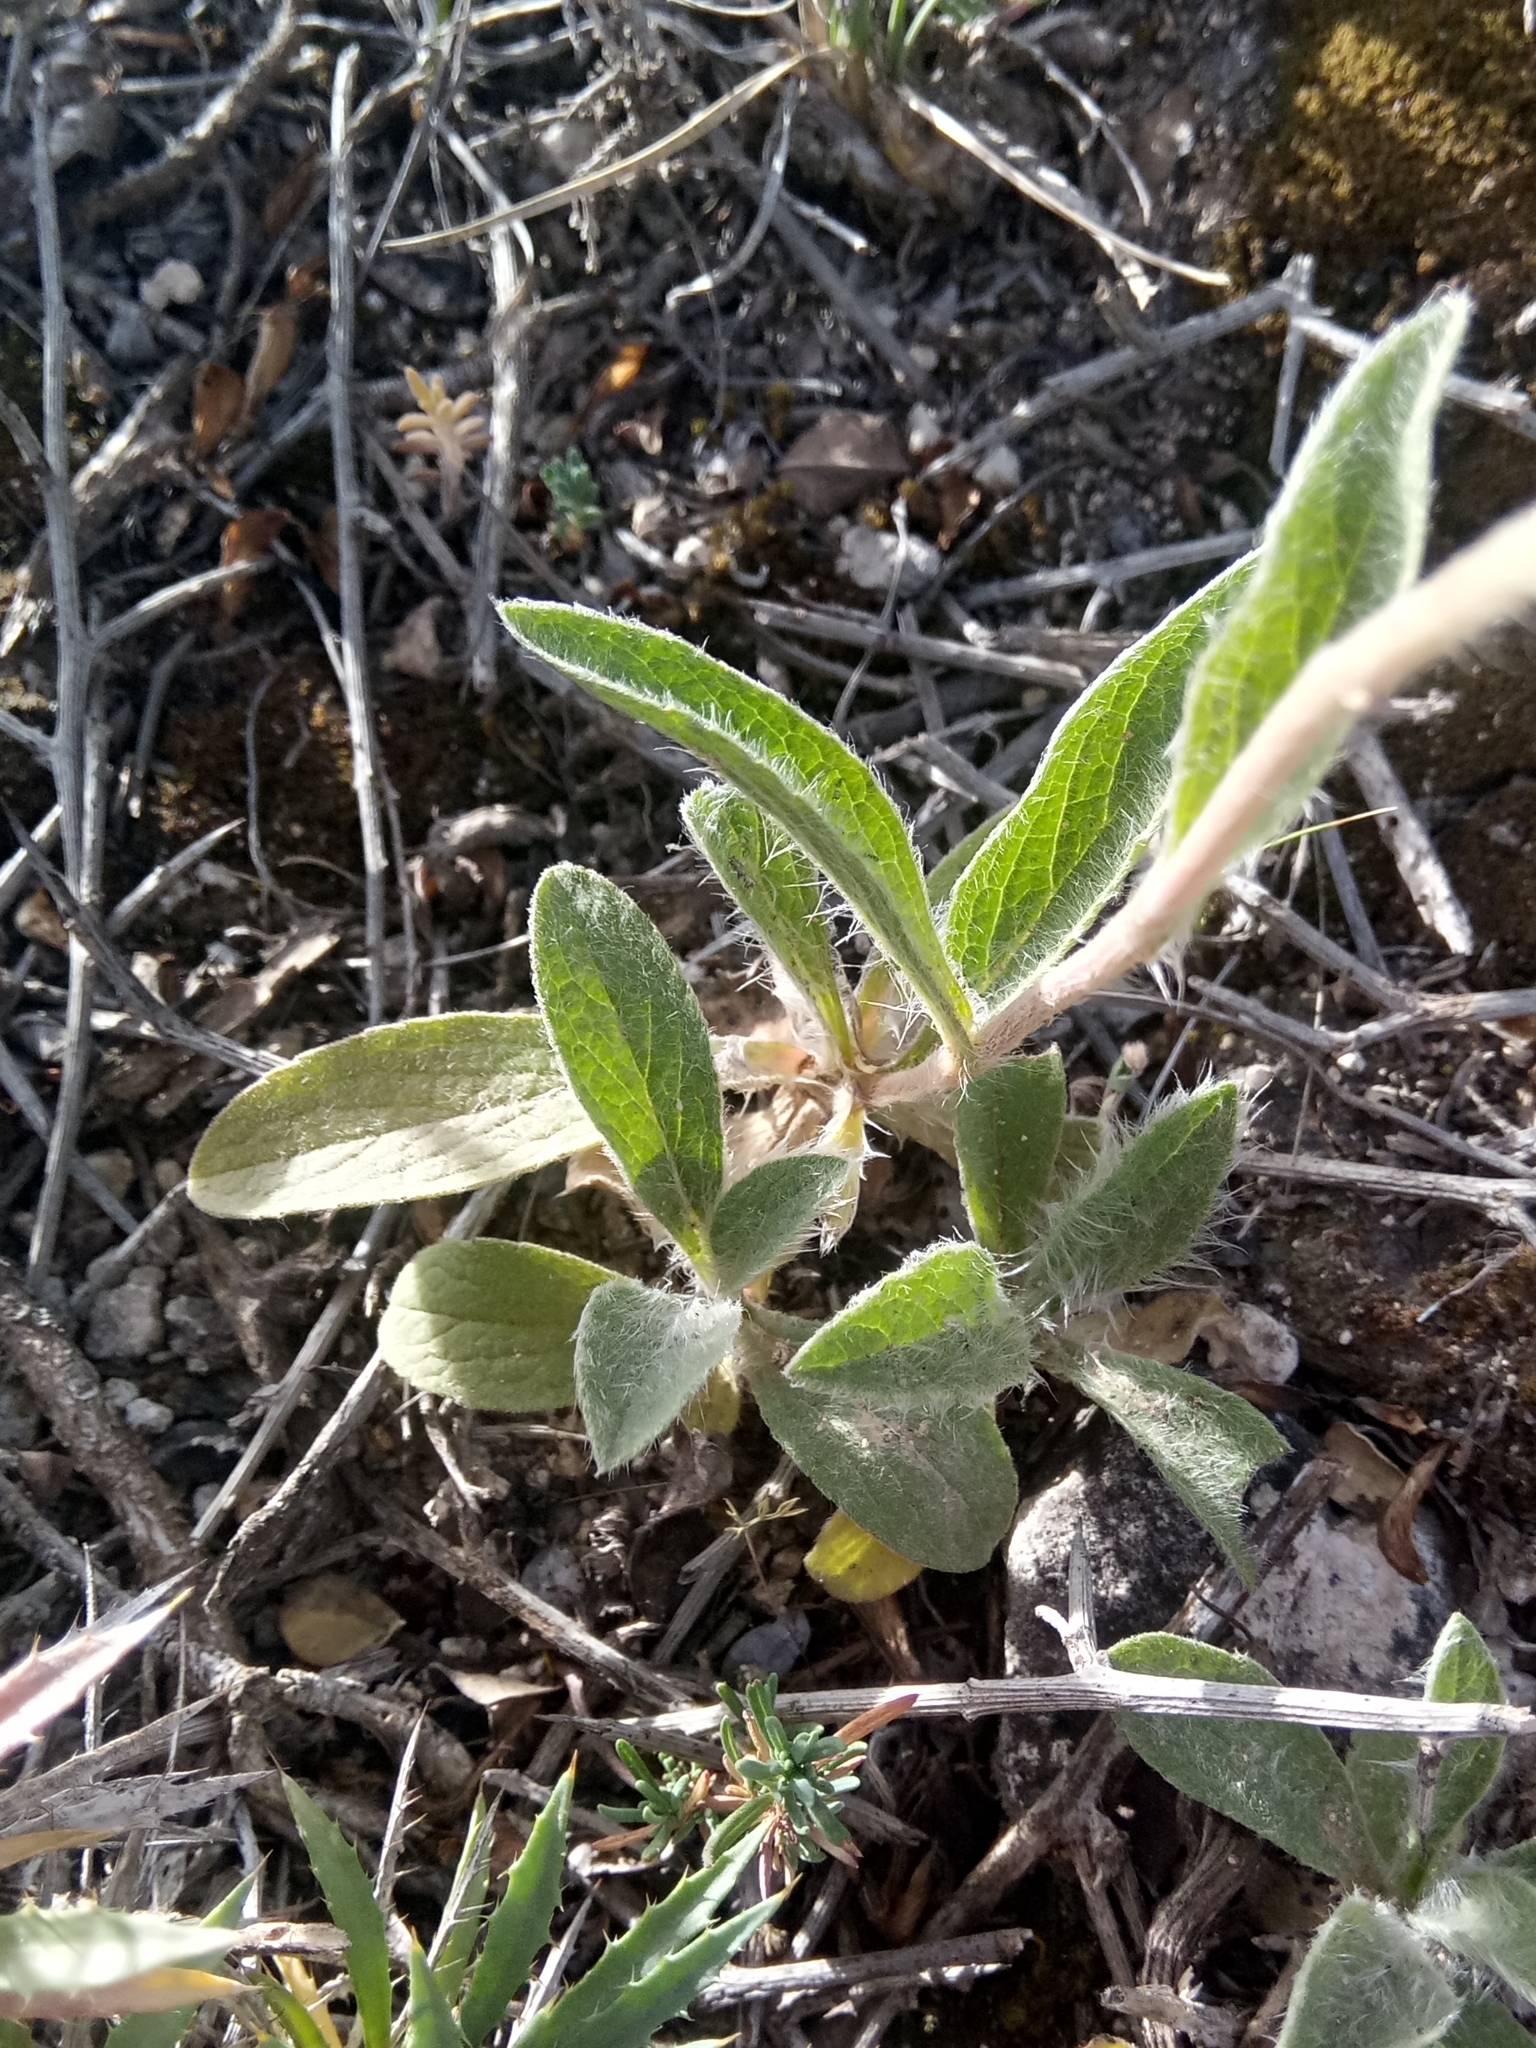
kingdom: Plantae
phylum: Tracheophyta
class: Magnoliopsida
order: Asterales
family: Asteraceae
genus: Pentanema
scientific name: Pentanema montanum
